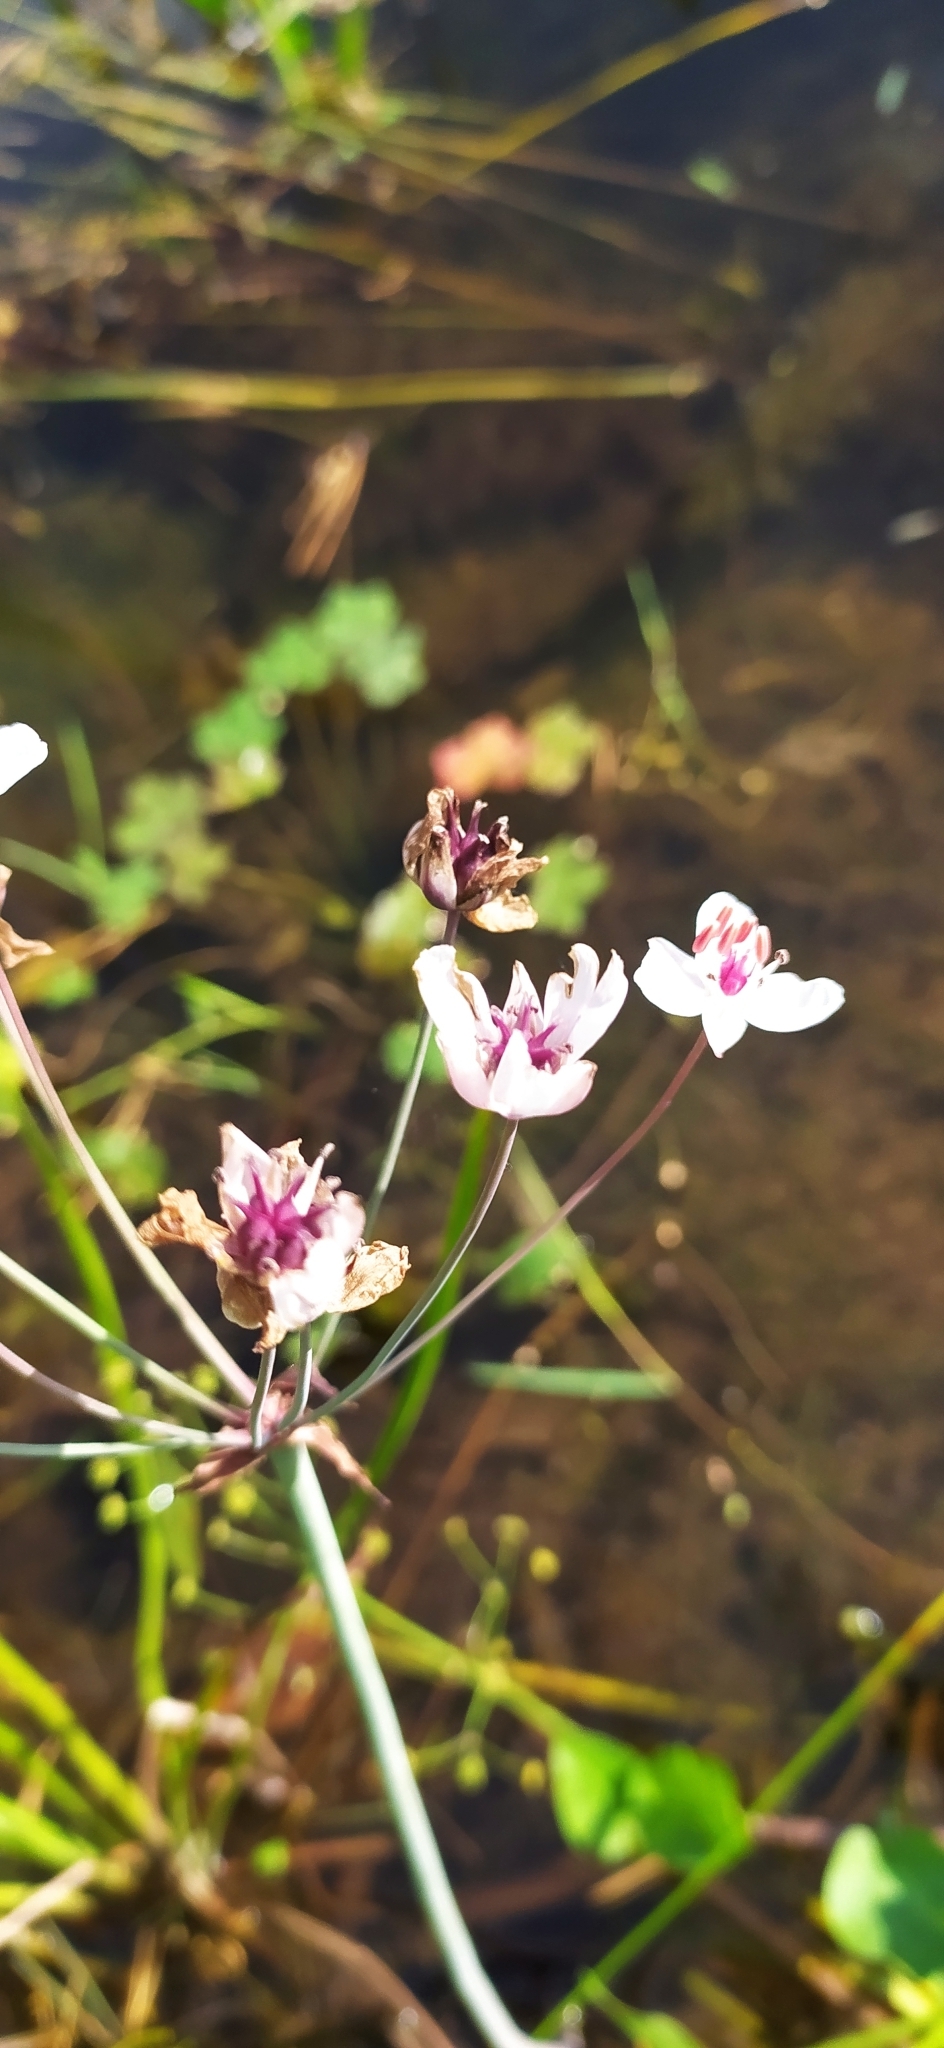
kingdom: Plantae
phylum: Tracheophyta
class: Liliopsida
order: Alismatales
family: Butomaceae
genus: Butomus
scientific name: Butomus umbellatus
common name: Flowering-rush
